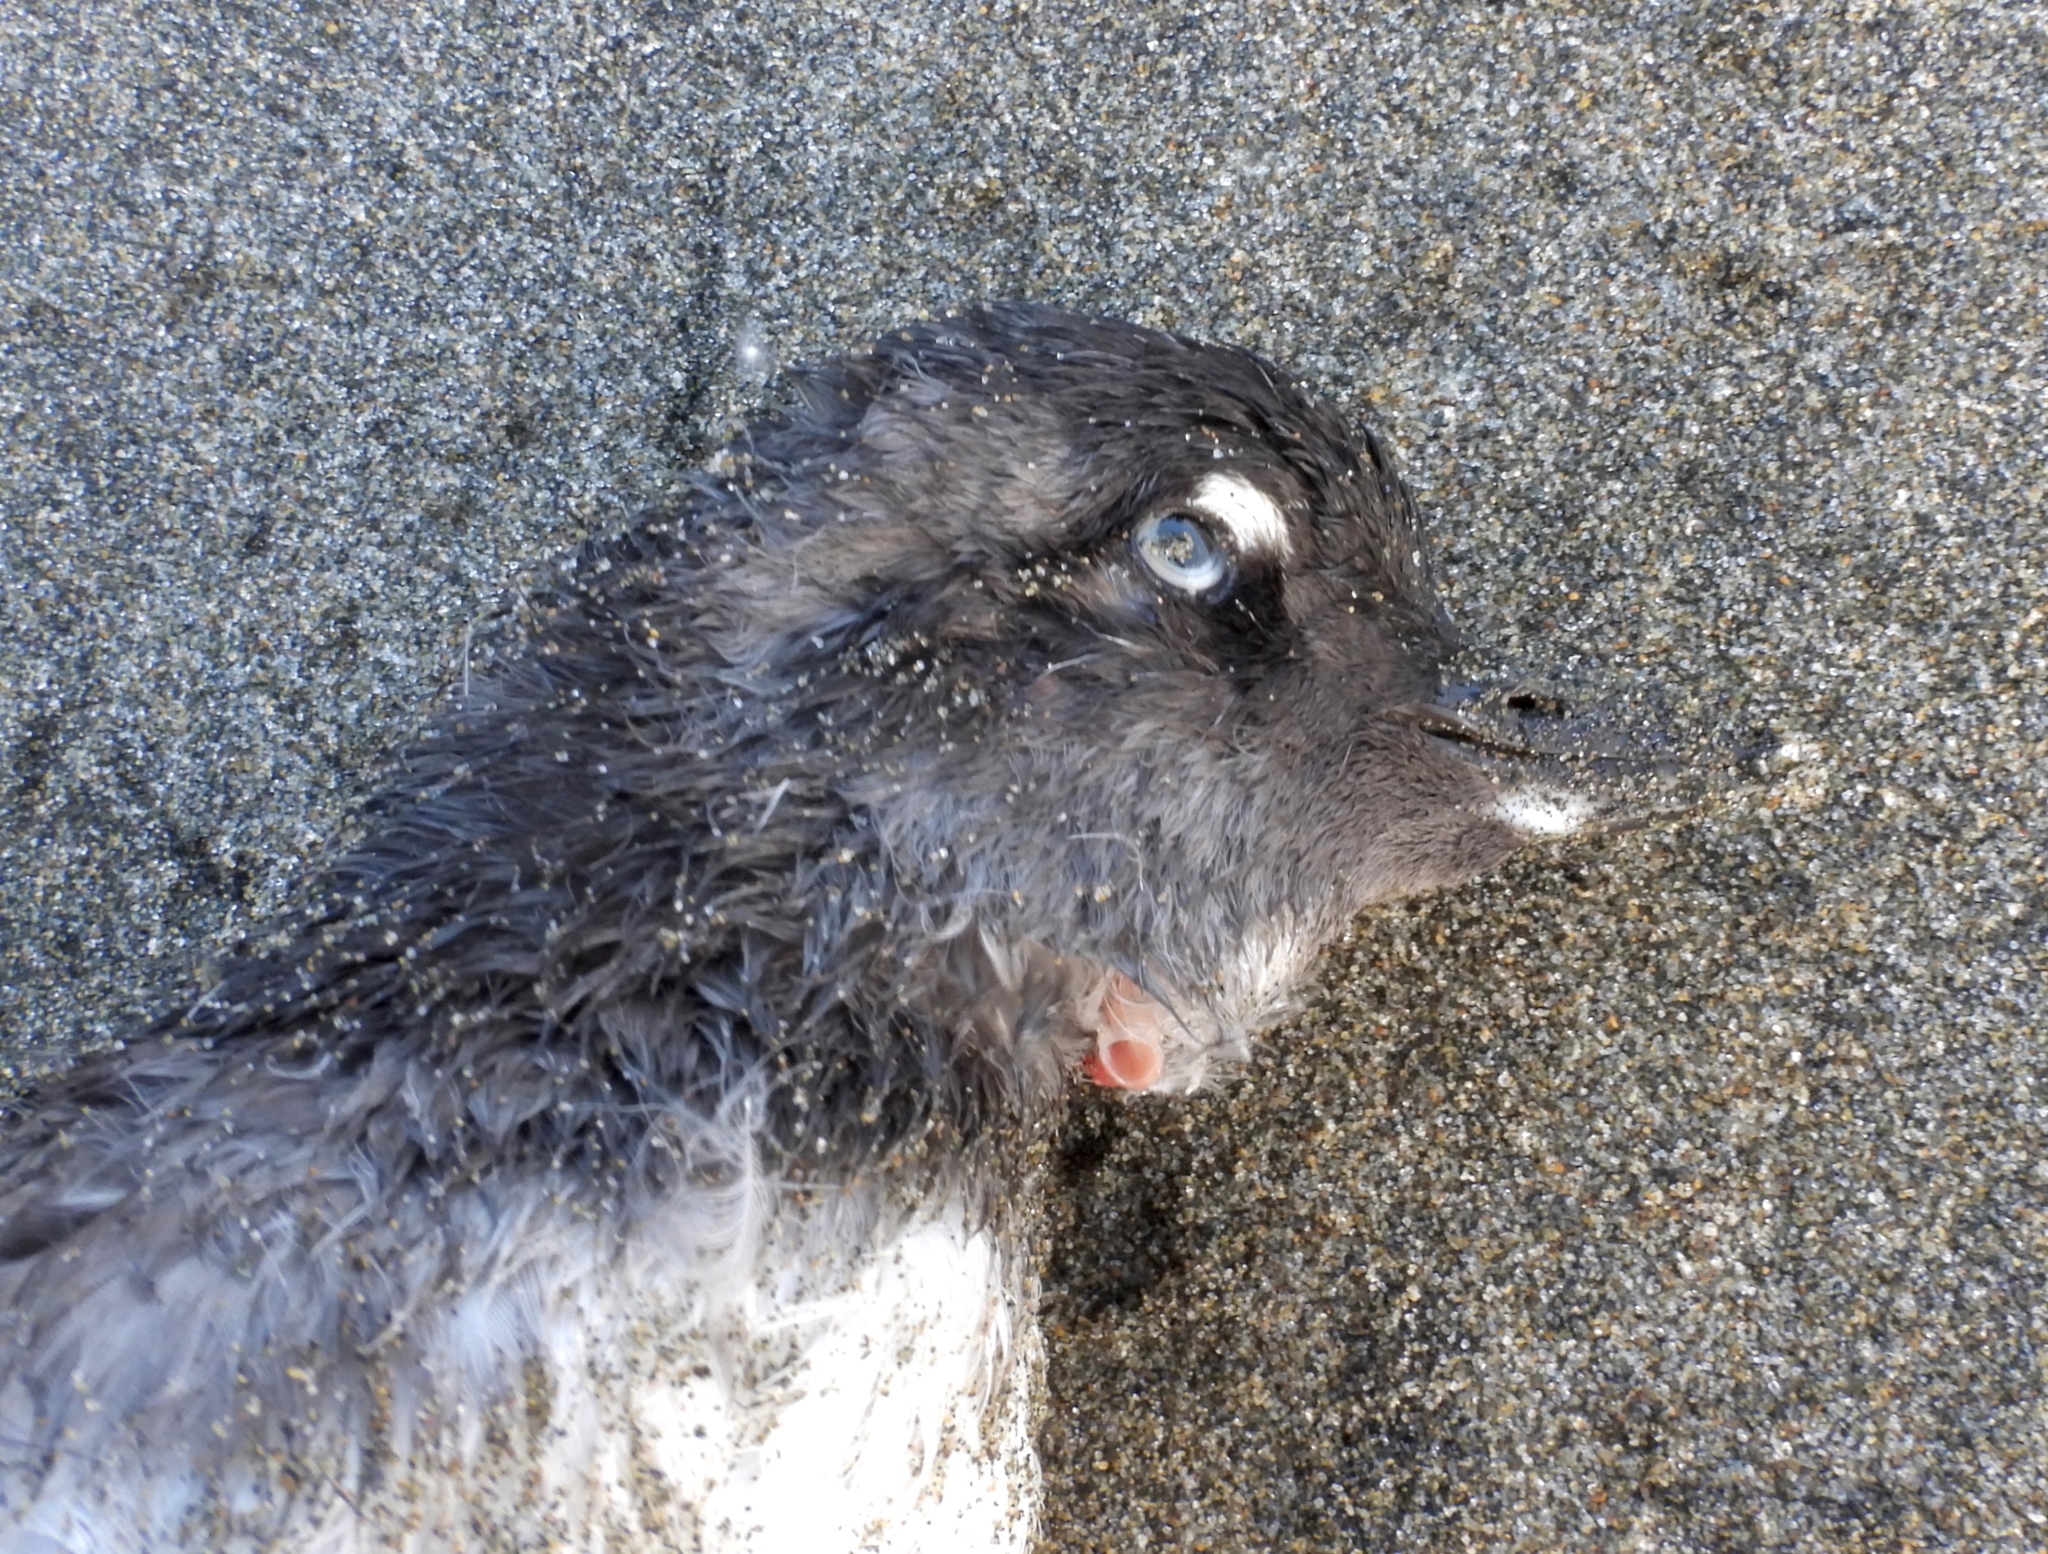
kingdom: Animalia
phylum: Chordata
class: Aves
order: Charadriiformes
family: Alcidae
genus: Ptychoramphus
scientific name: Ptychoramphus aleuticus
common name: Cassin's auklet
